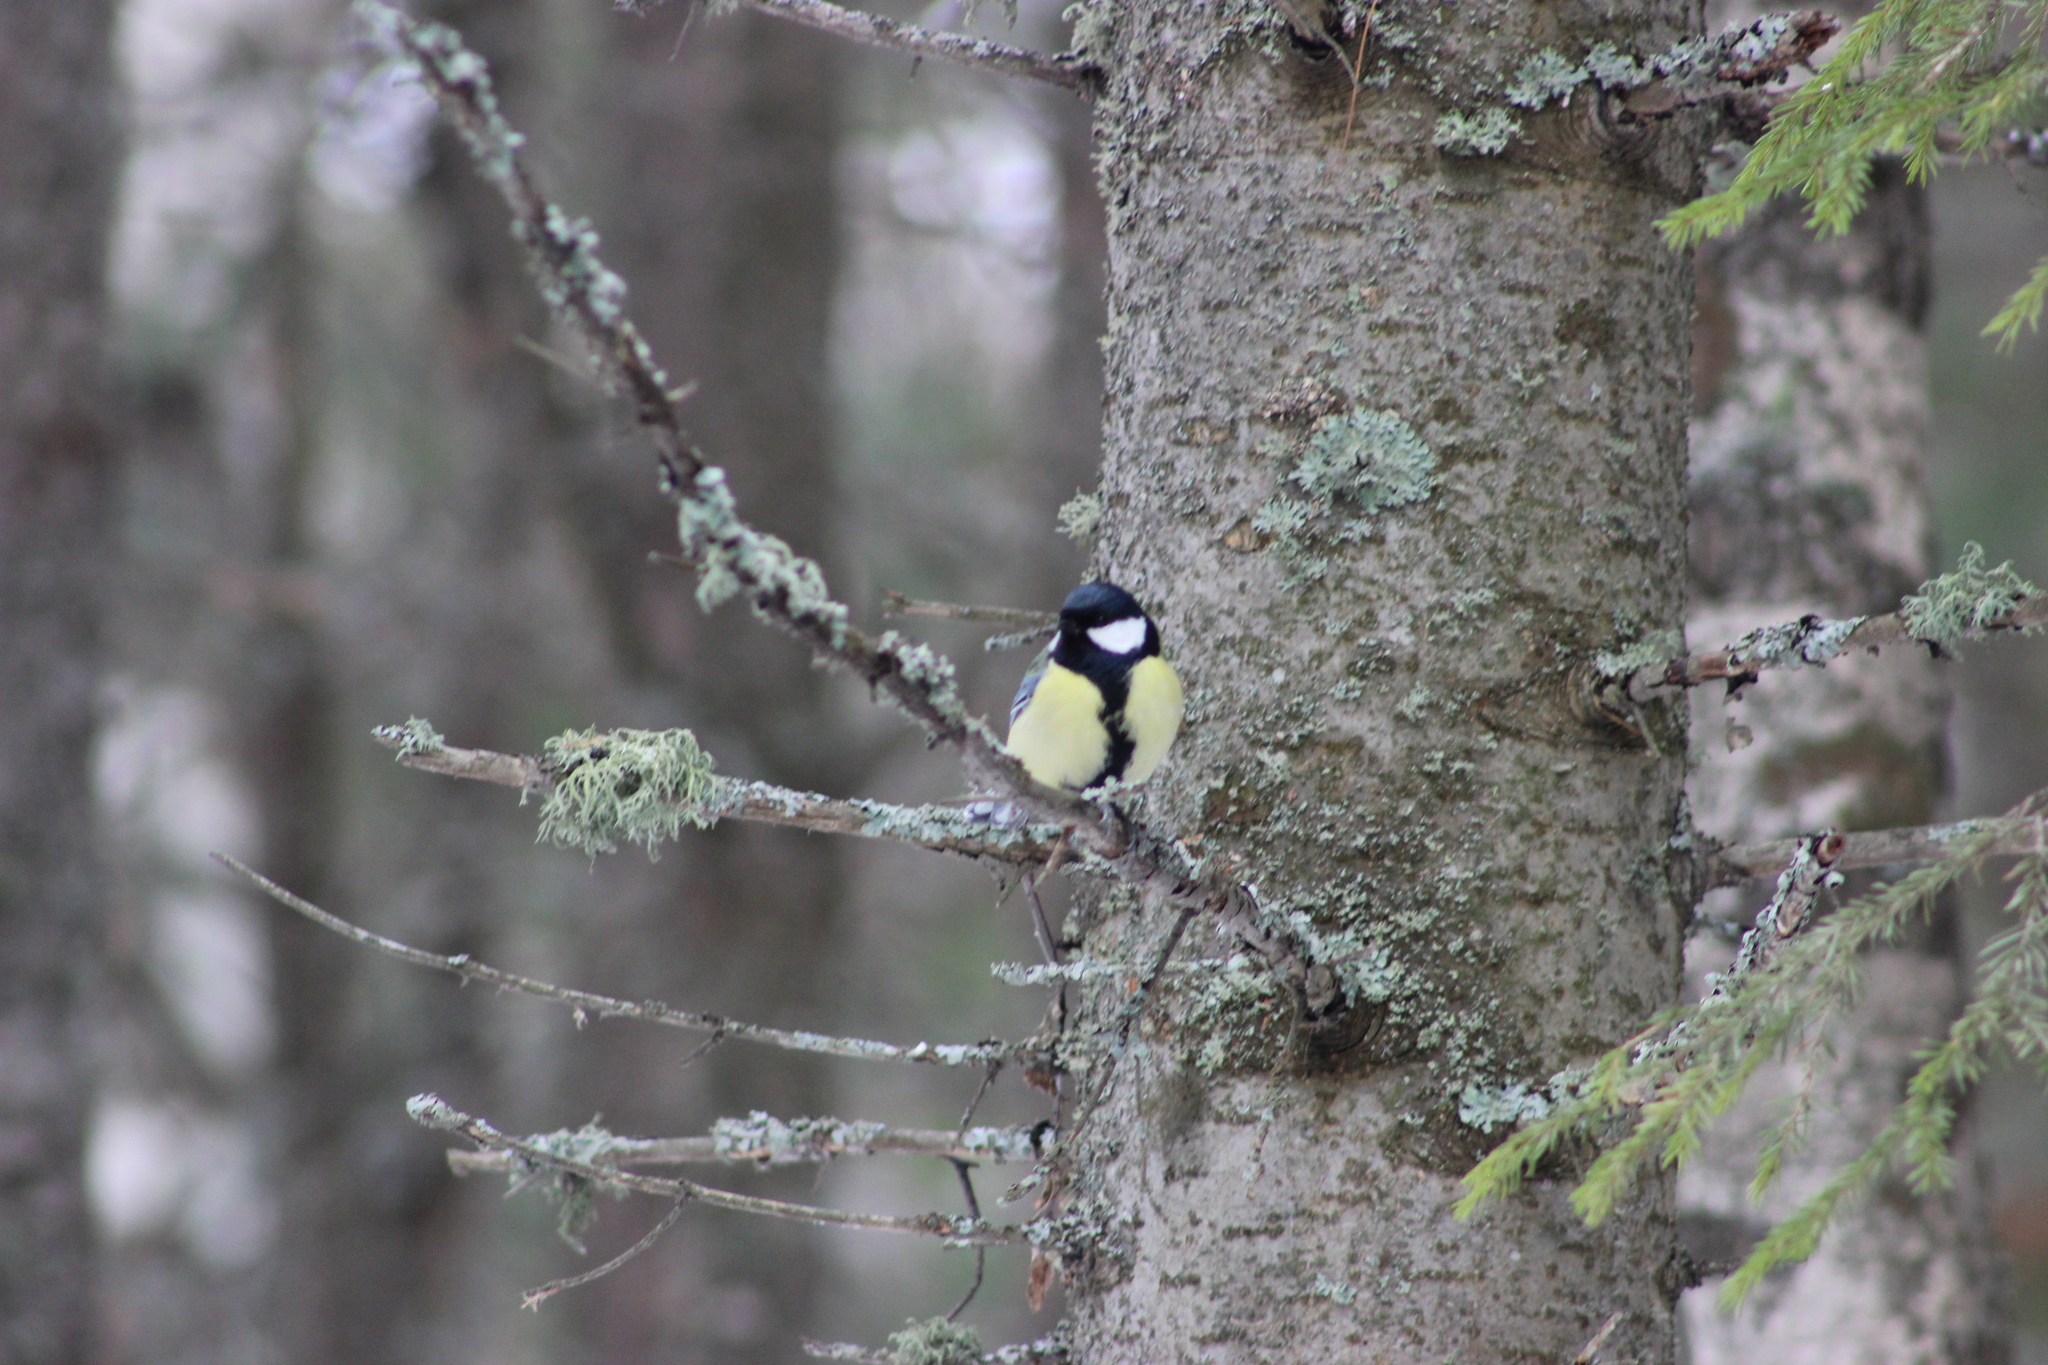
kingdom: Animalia
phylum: Chordata
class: Aves
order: Passeriformes
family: Paridae
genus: Parus
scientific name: Parus major
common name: Great tit
